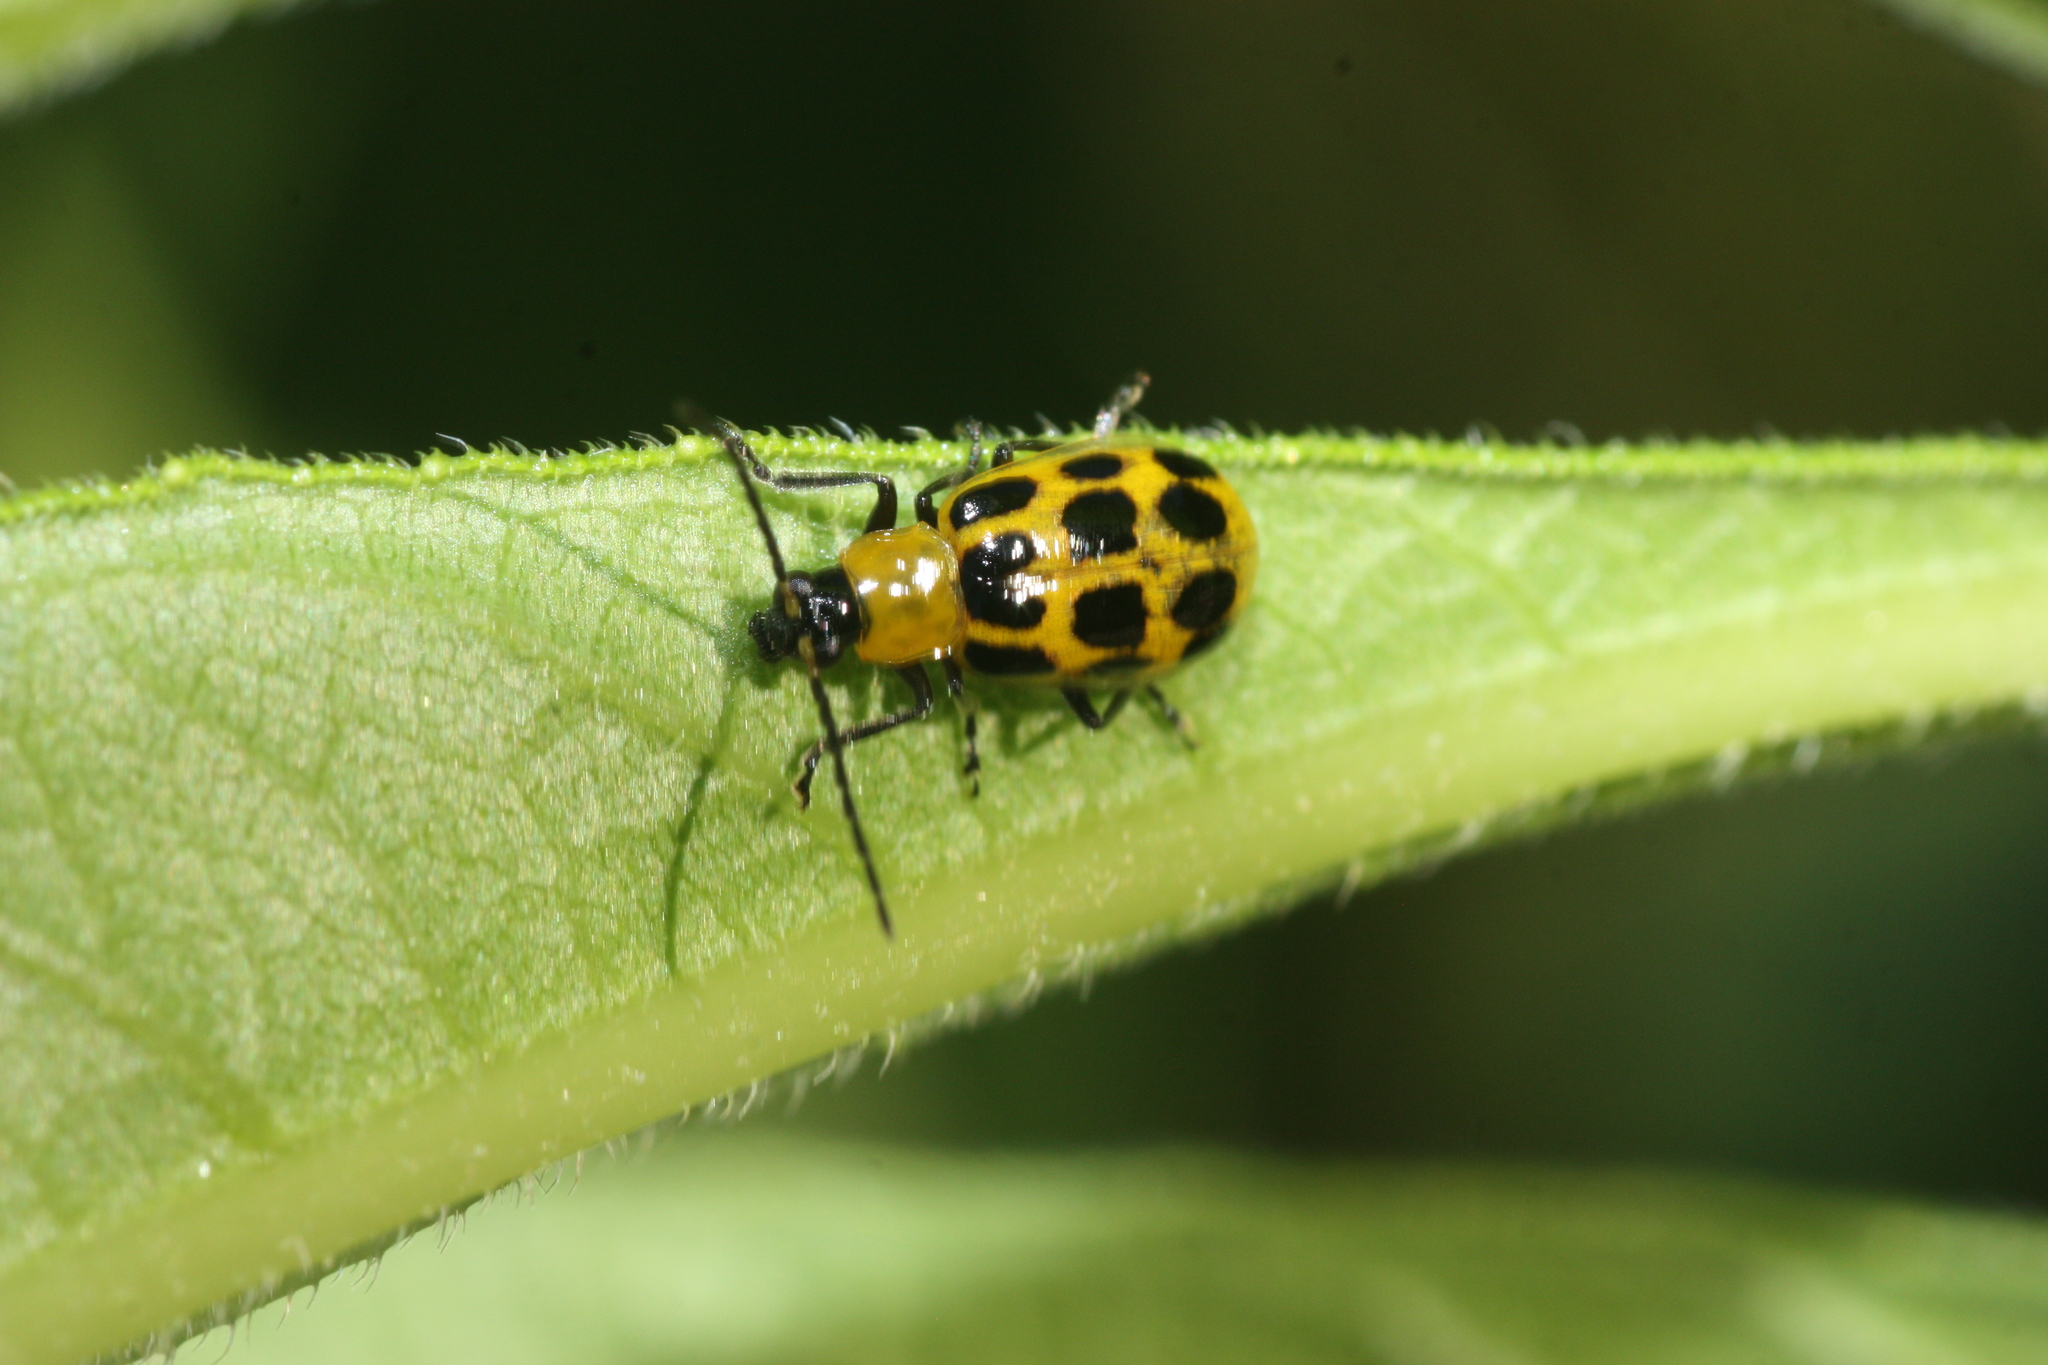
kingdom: Animalia
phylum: Arthropoda
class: Insecta
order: Coleoptera
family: Chrysomelidae
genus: Diabrotica
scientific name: Diabrotica undecimpunctata
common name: Spotted cucumber beetle
